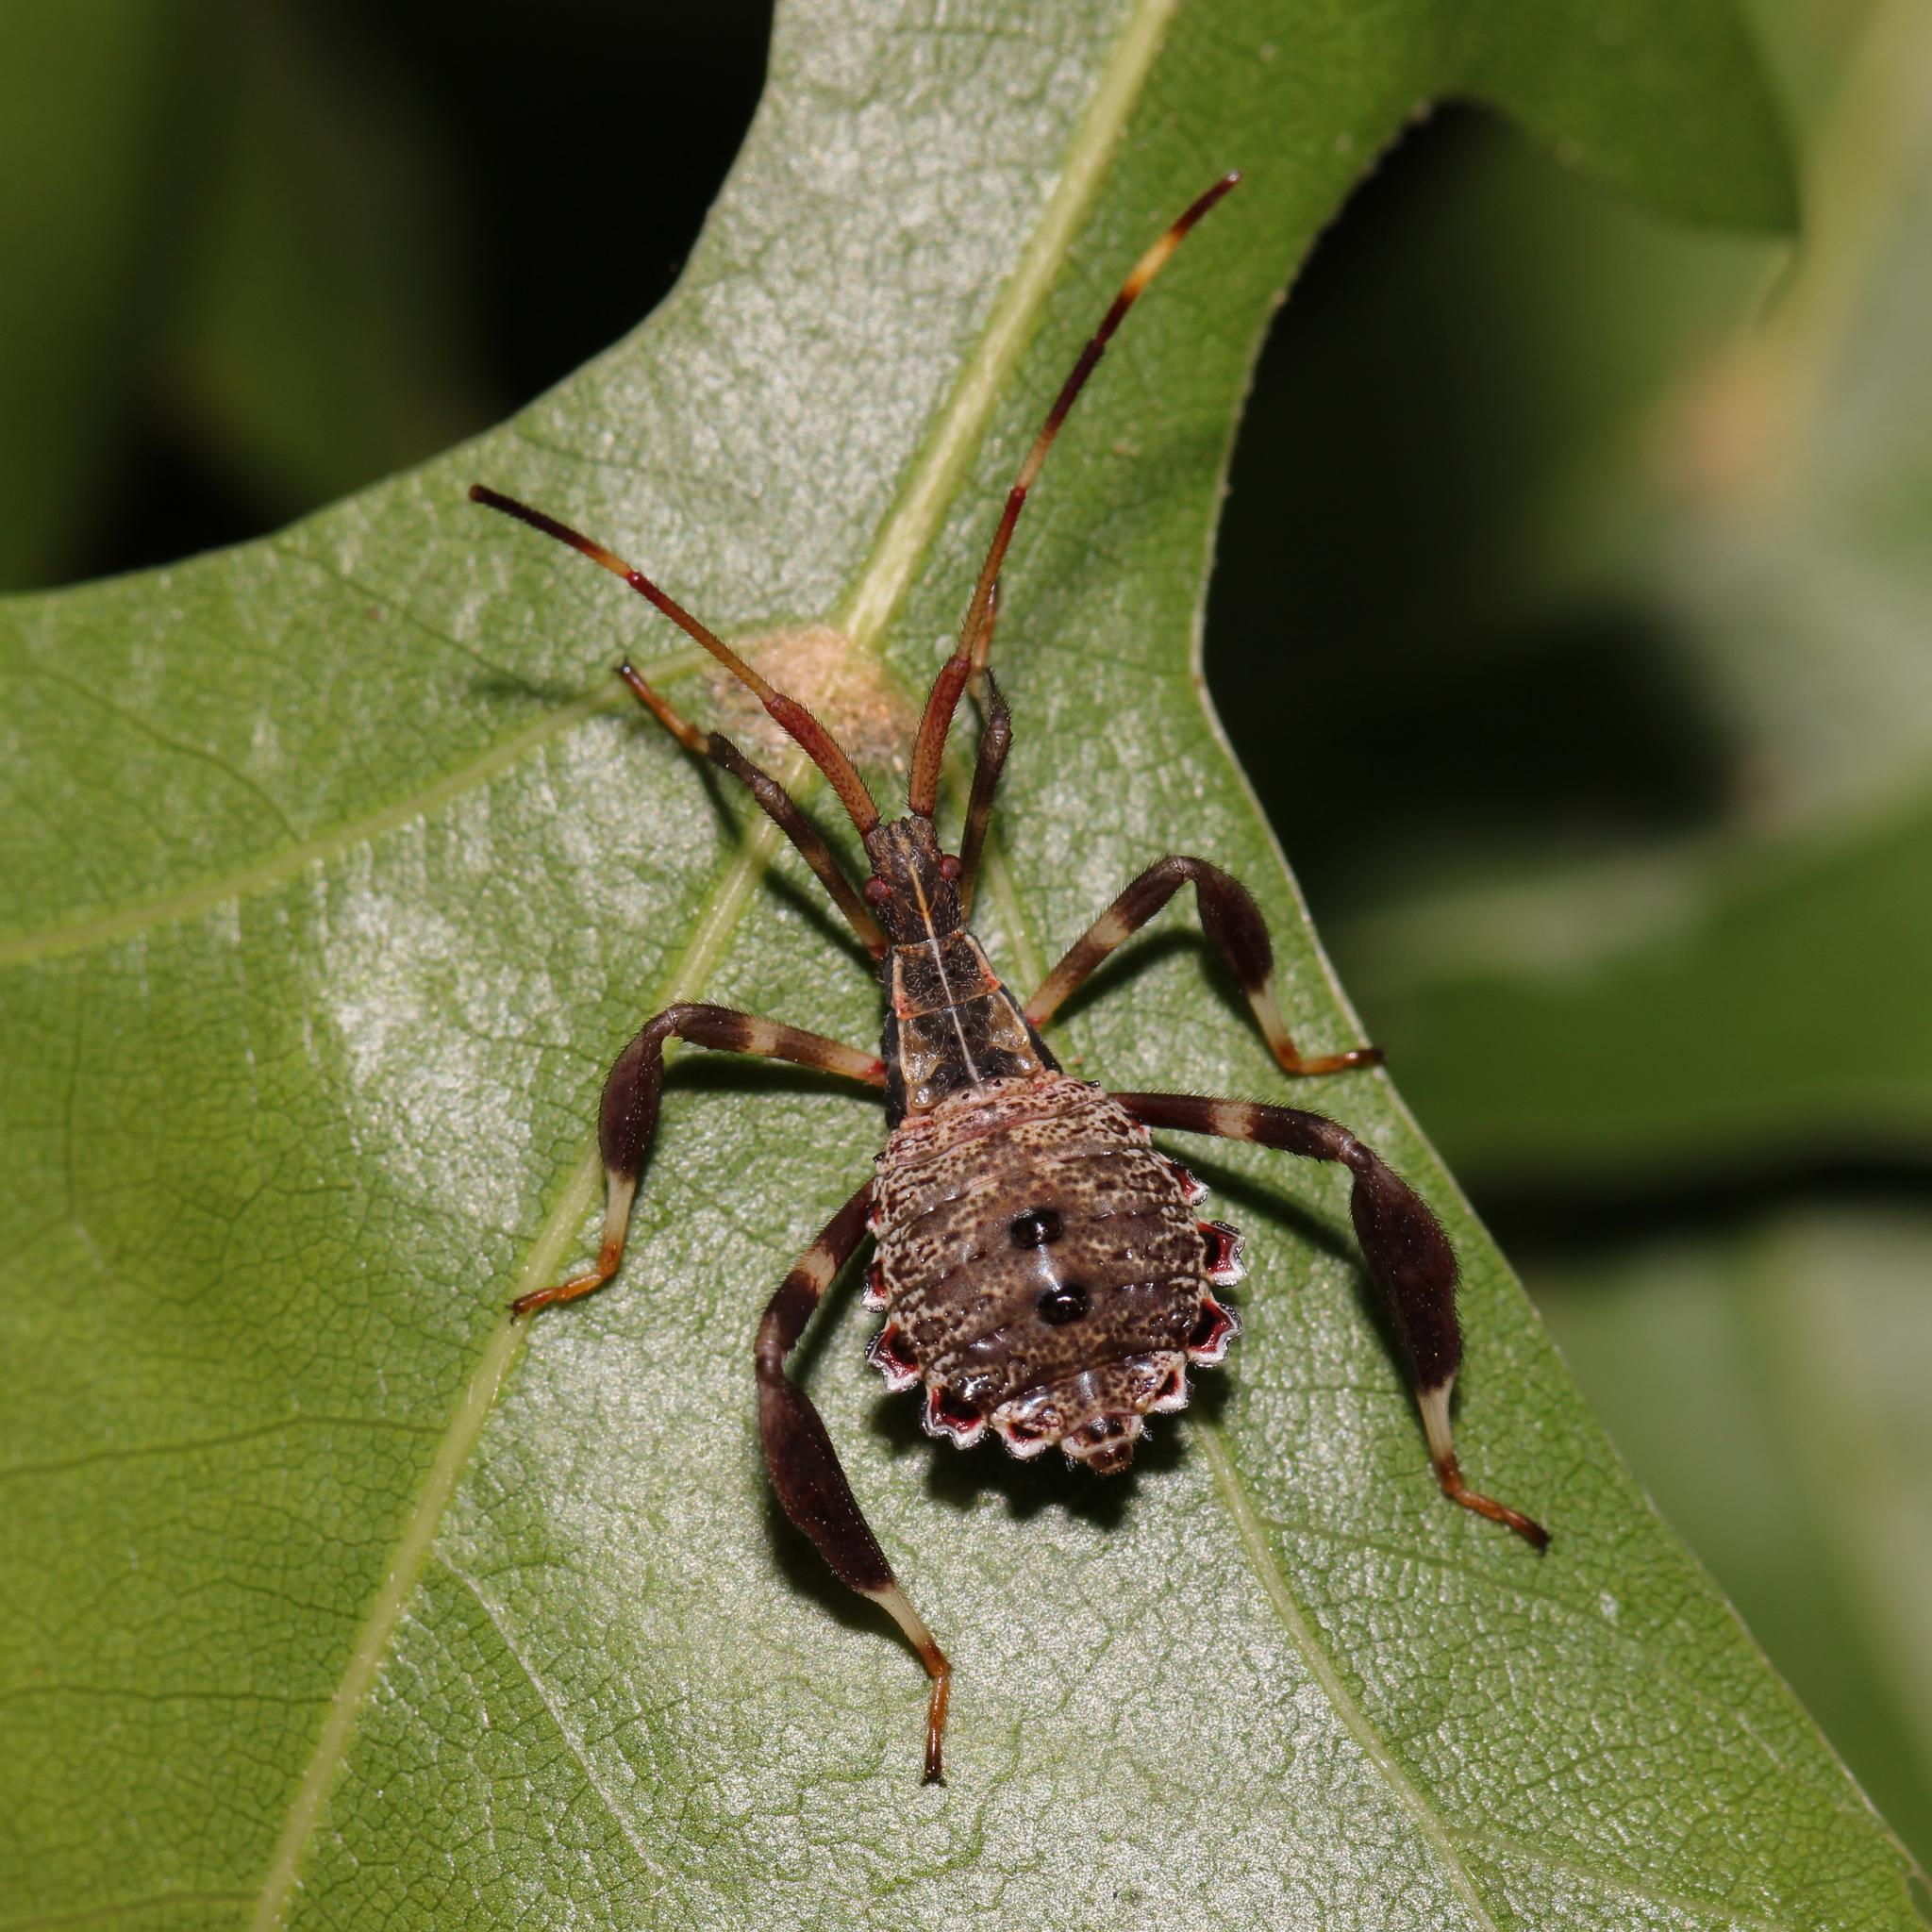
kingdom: Animalia
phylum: Arthropoda
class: Insecta
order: Hemiptera
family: Coreidae
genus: Acanthocephala
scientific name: Acanthocephala terminalis
